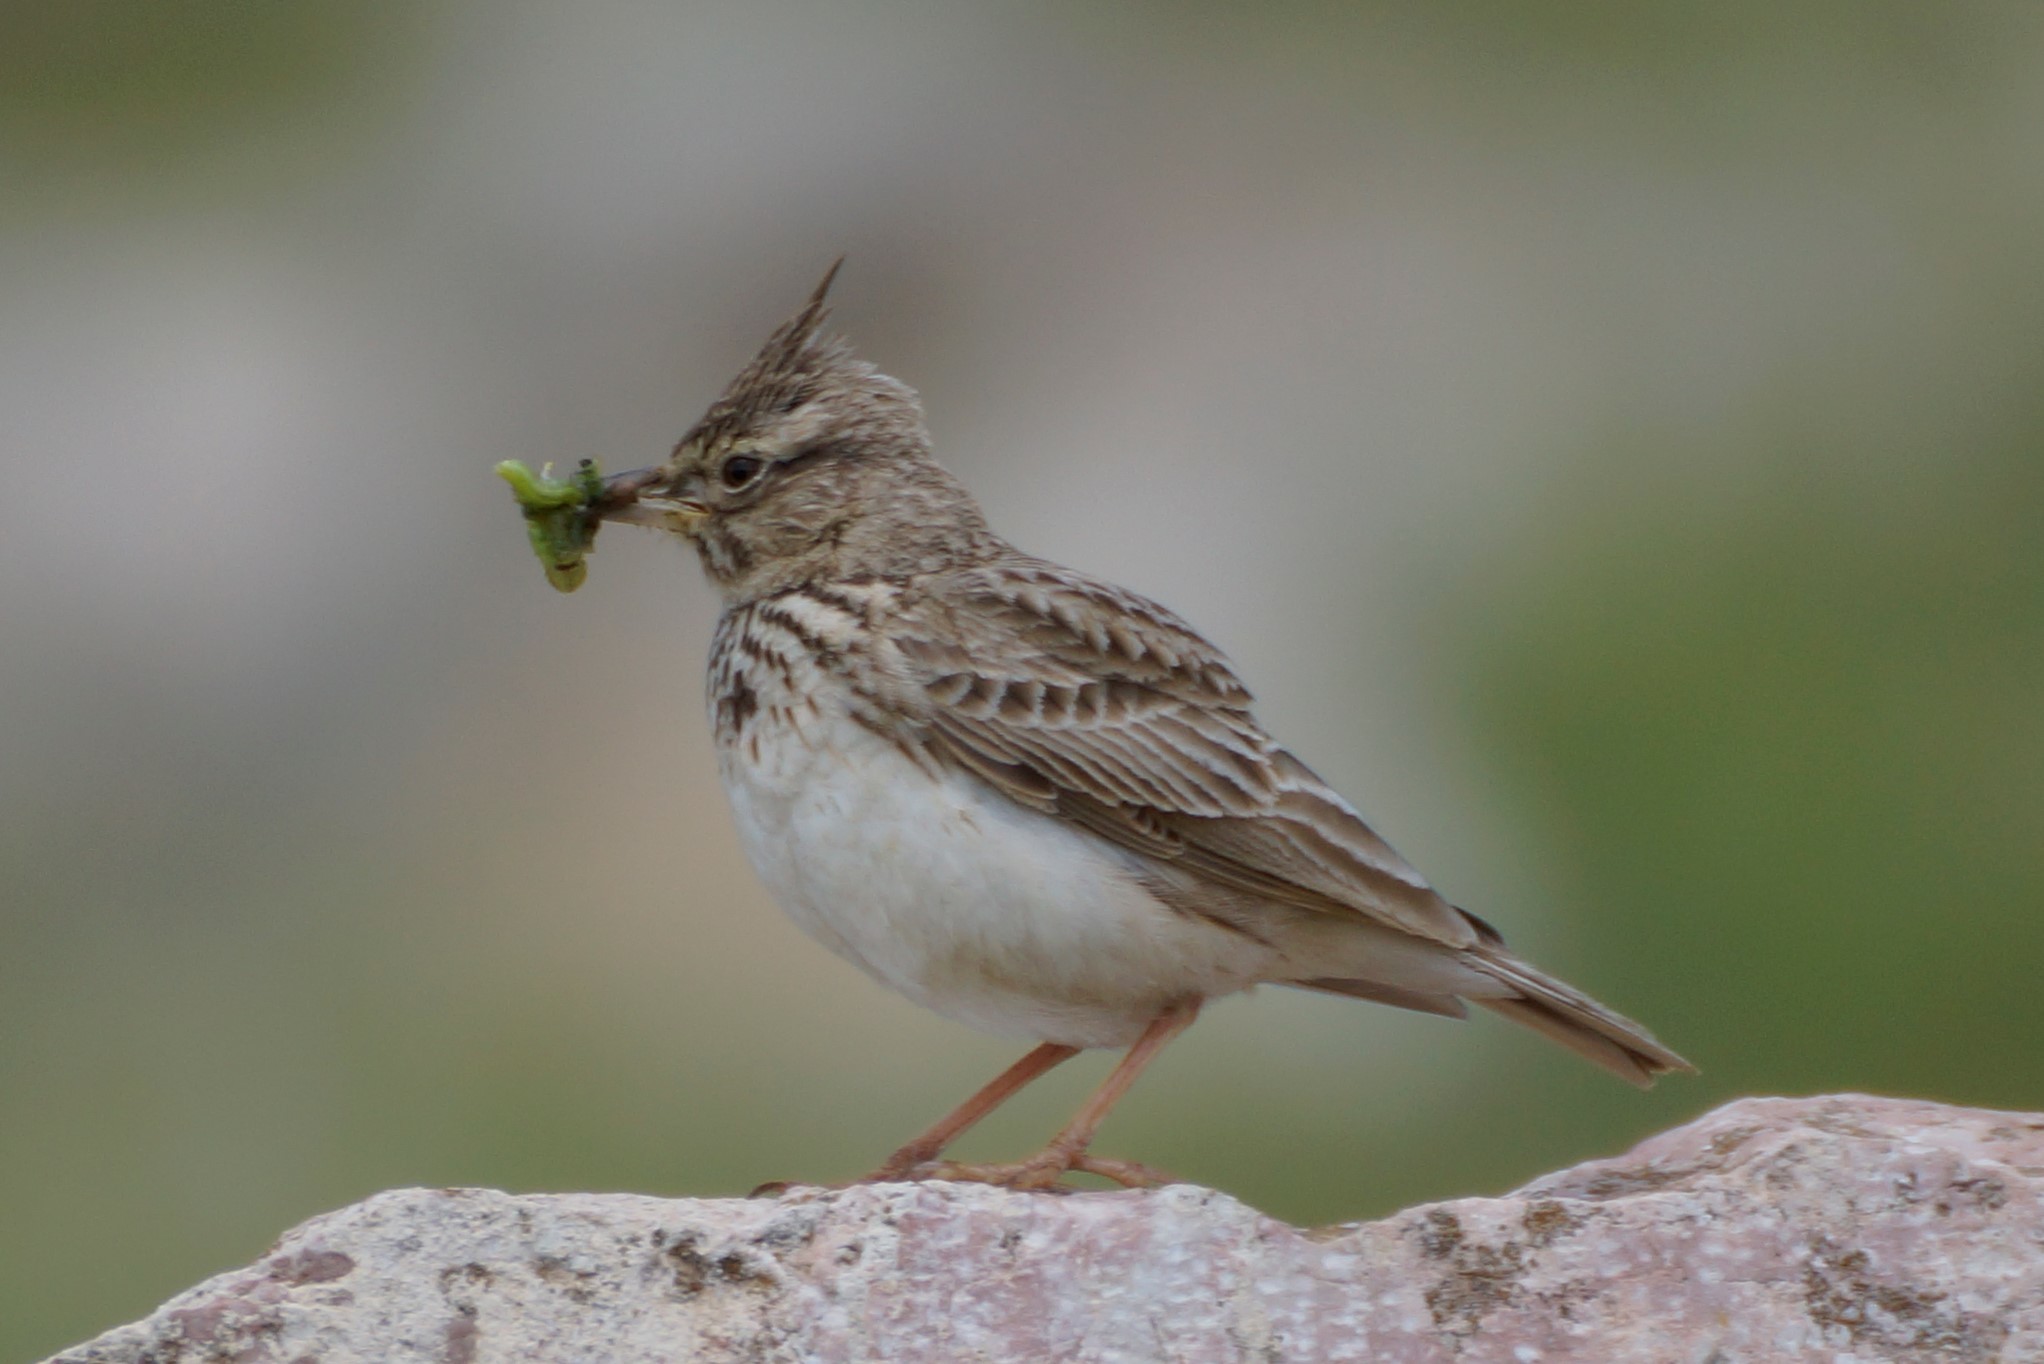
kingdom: Animalia
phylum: Chordata
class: Aves
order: Passeriformes
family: Alaudidae
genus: Galerida
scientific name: Galerida cristata
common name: Crested lark
